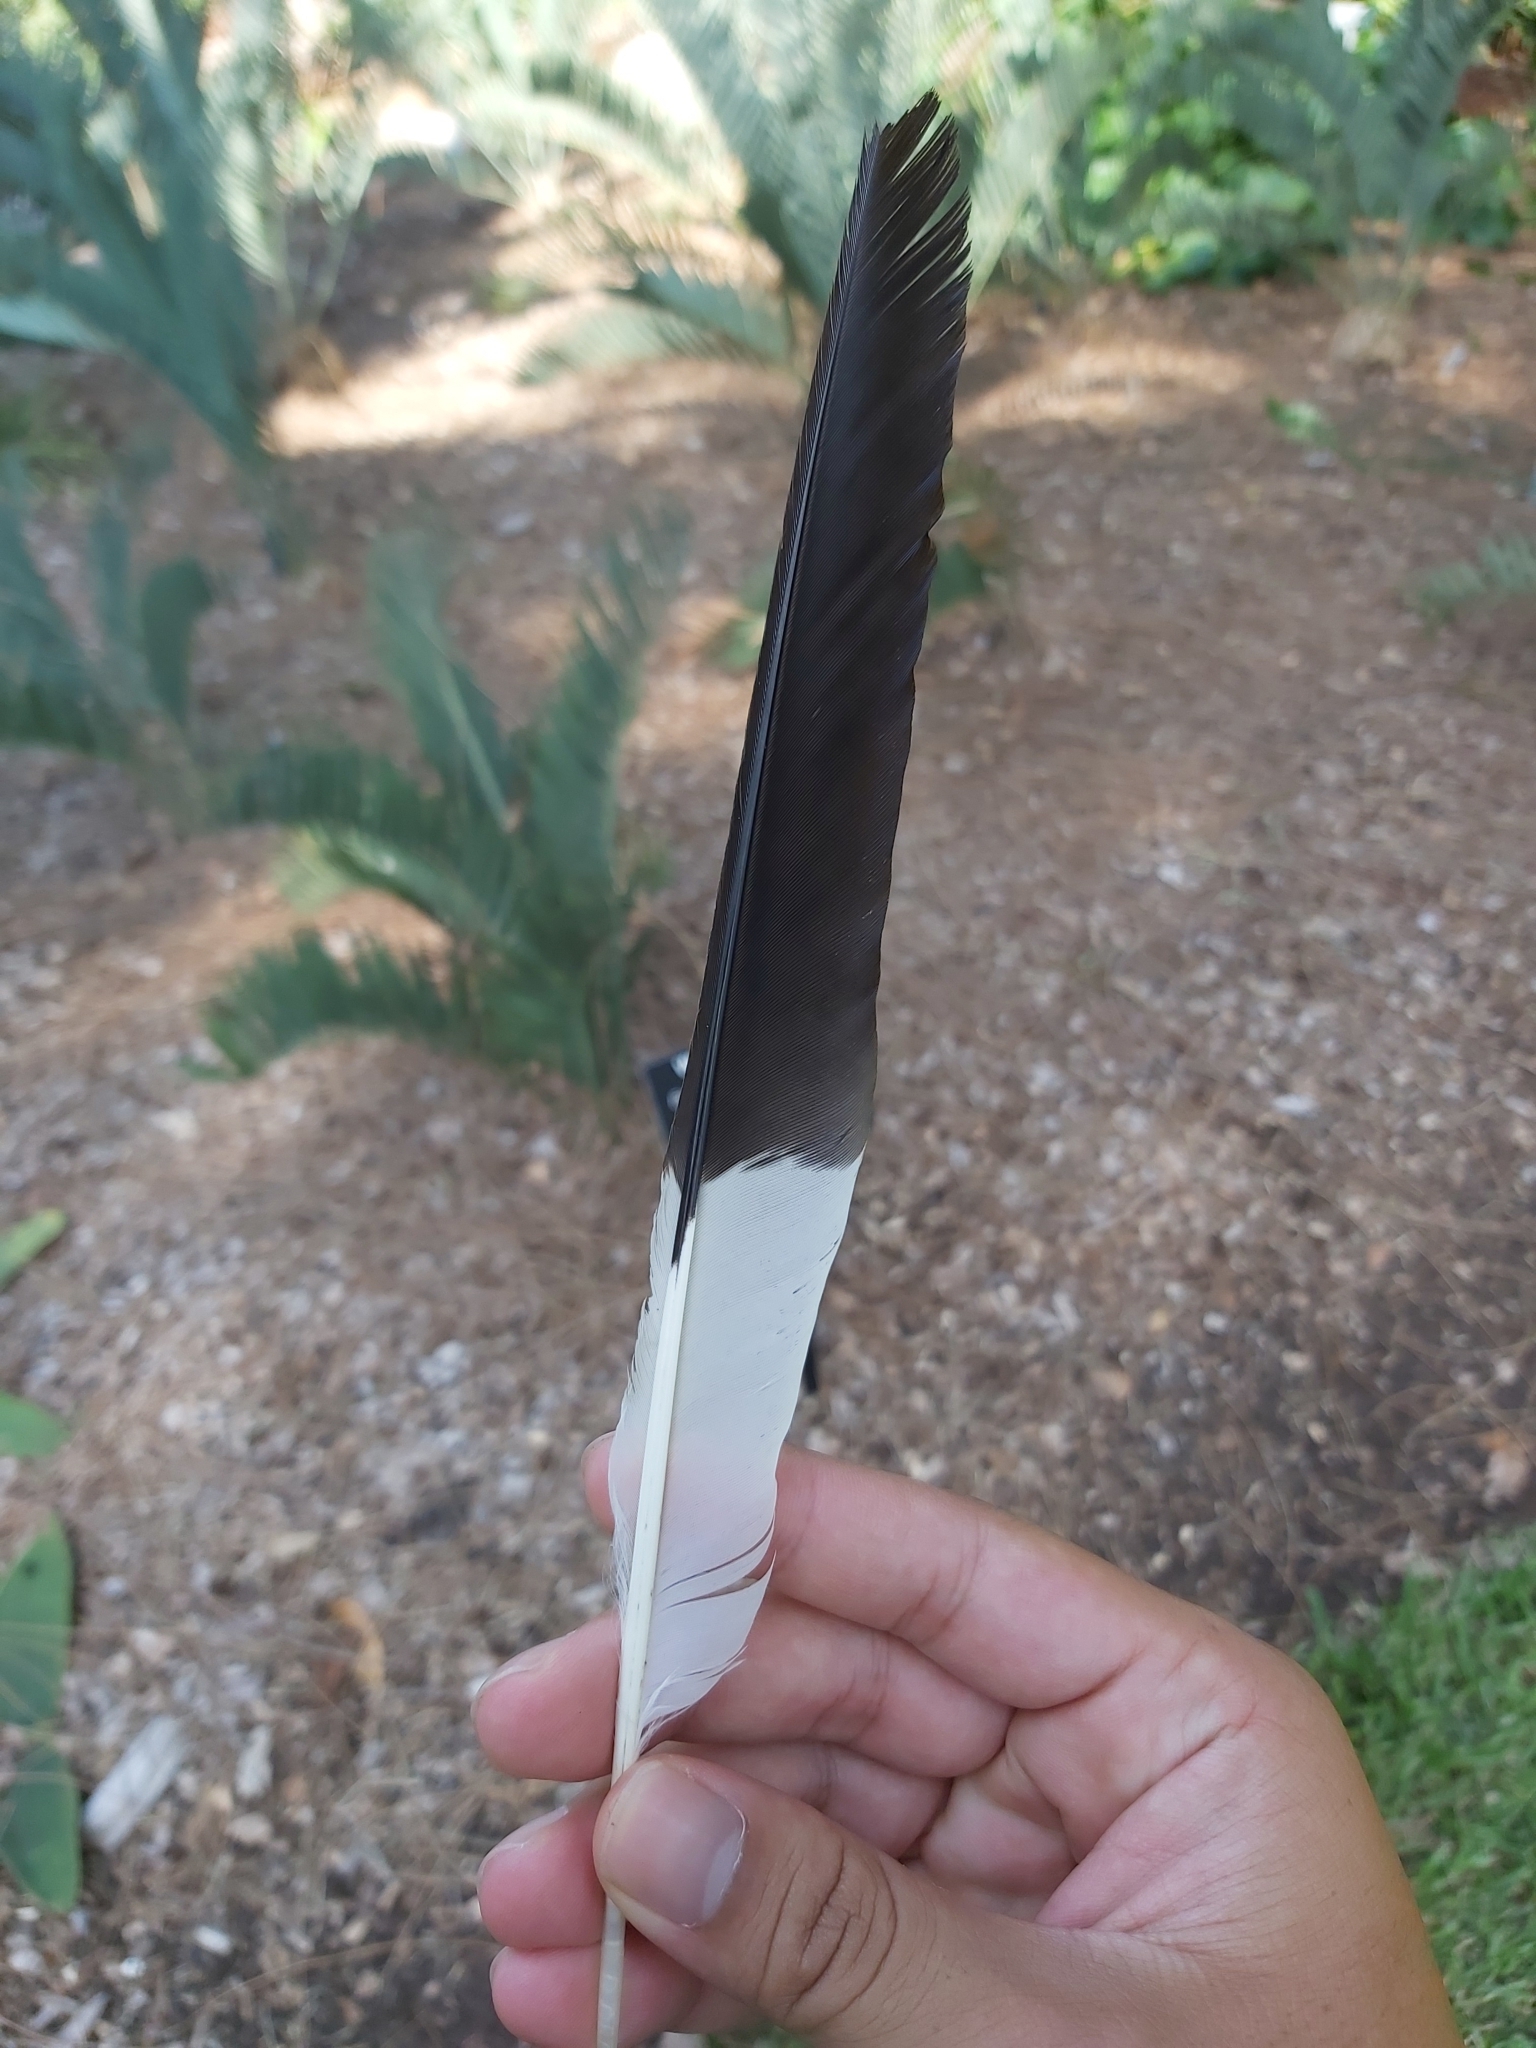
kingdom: Animalia
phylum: Chordata
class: Aves
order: Passeriformes
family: Cracticidae
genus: Strepera
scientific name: Strepera graculina
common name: Pied currawong
